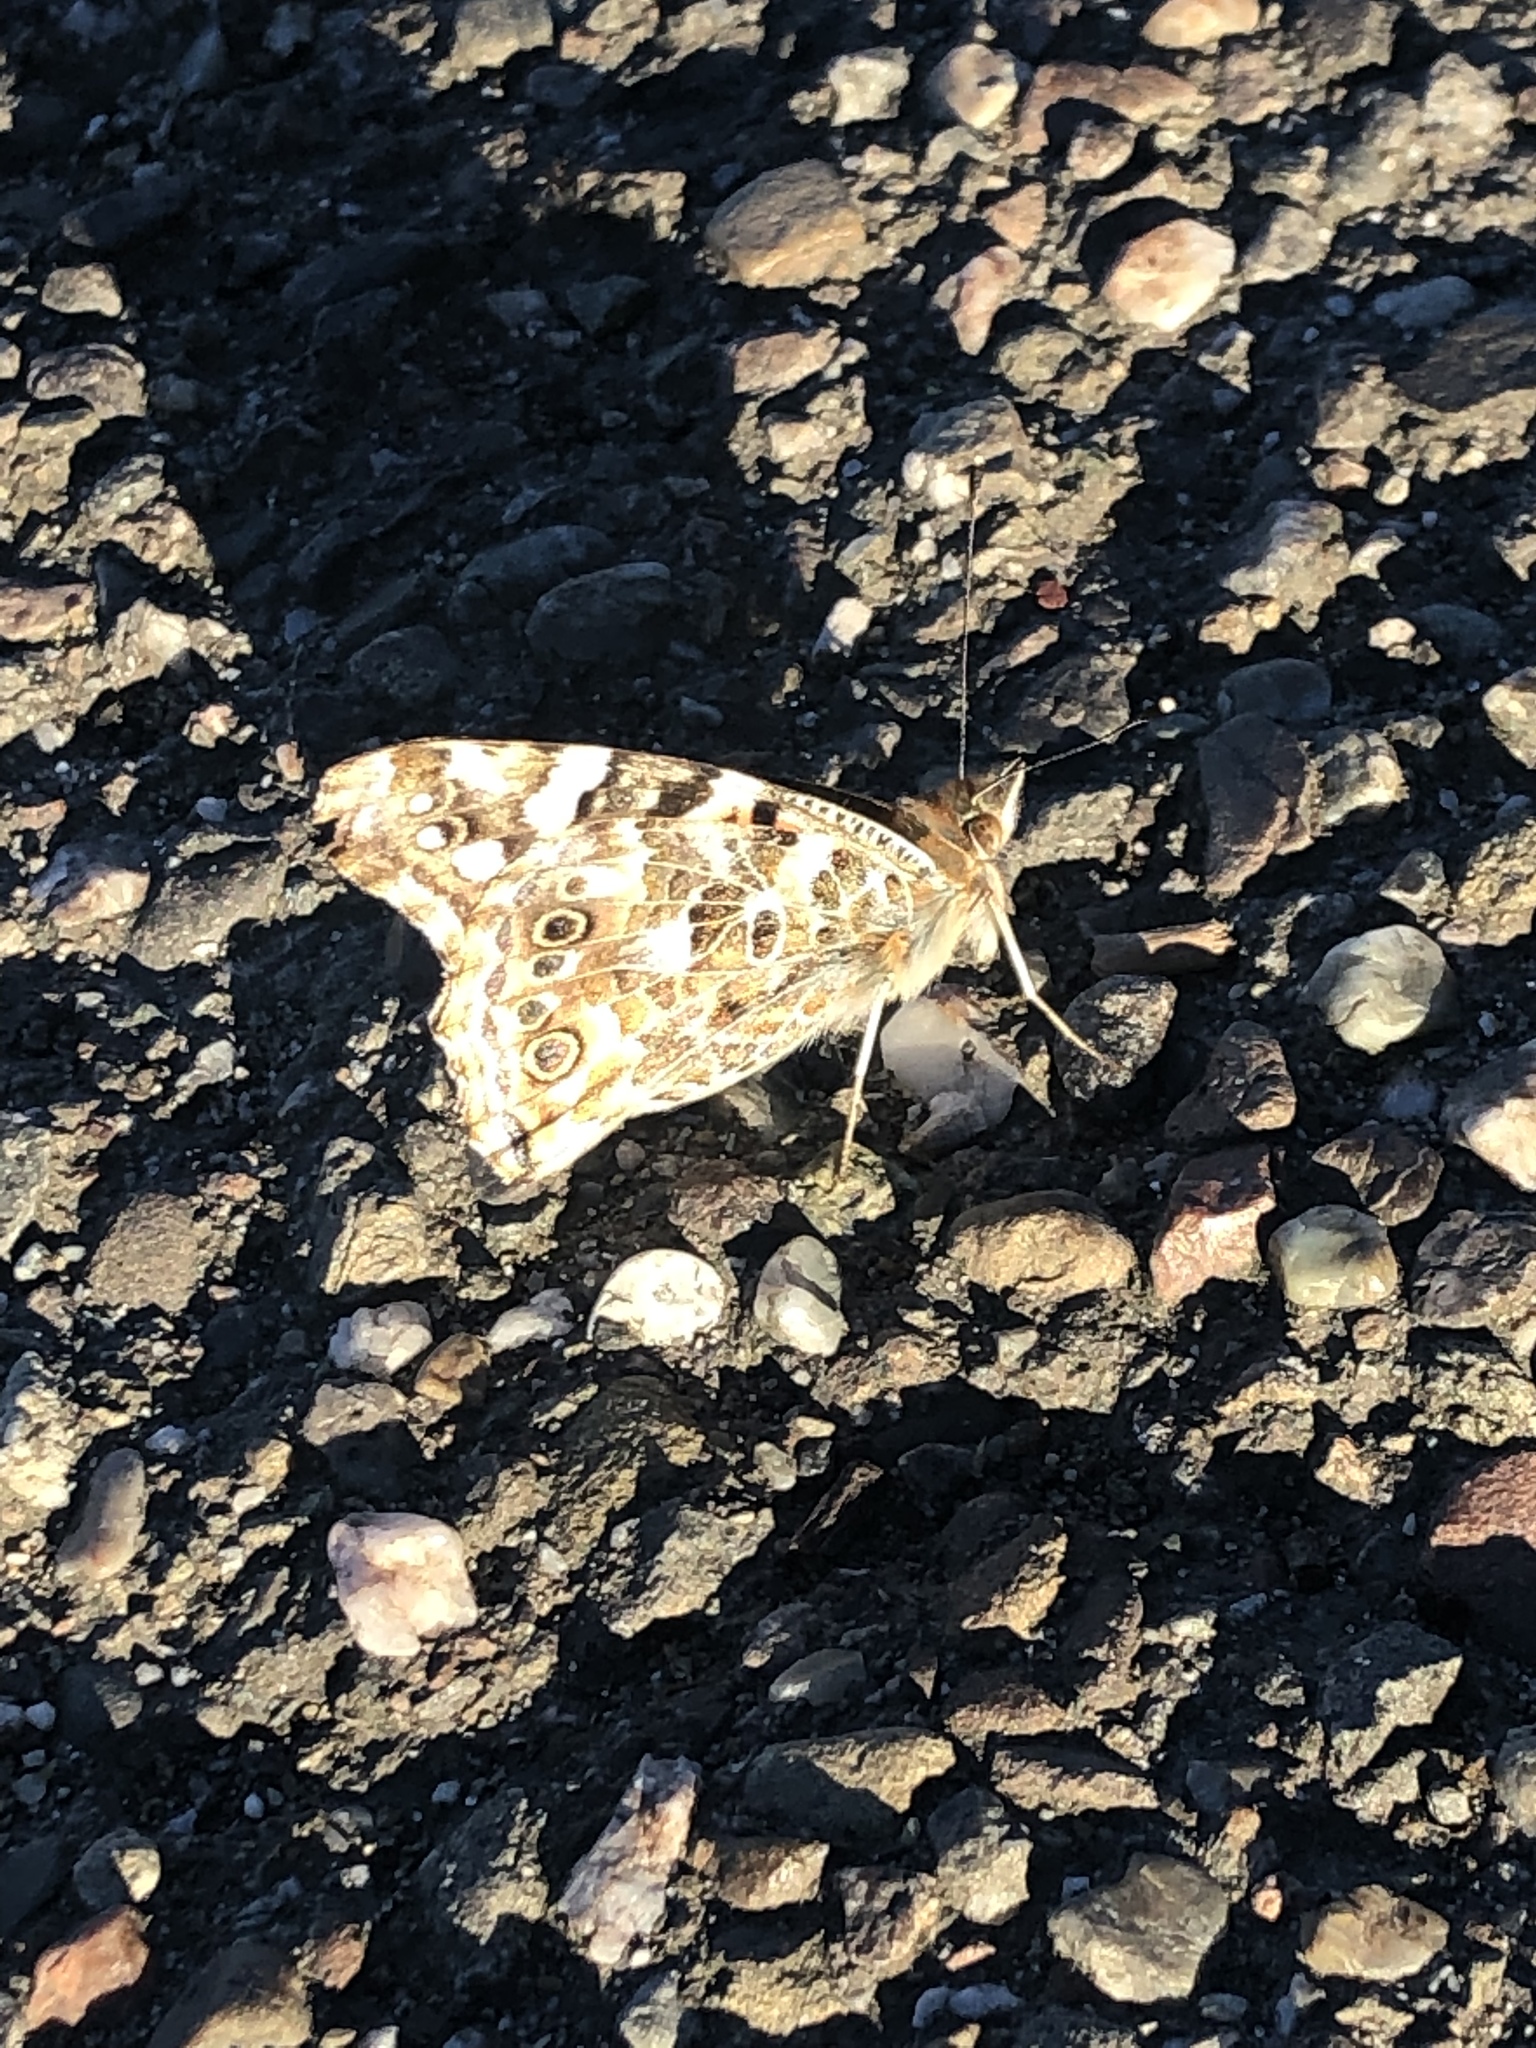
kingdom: Animalia
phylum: Arthropoda
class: Insecta
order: Lepidoptera
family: Nymphalidae
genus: Vanessa
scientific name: Vanessa cardui
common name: Painted lady
